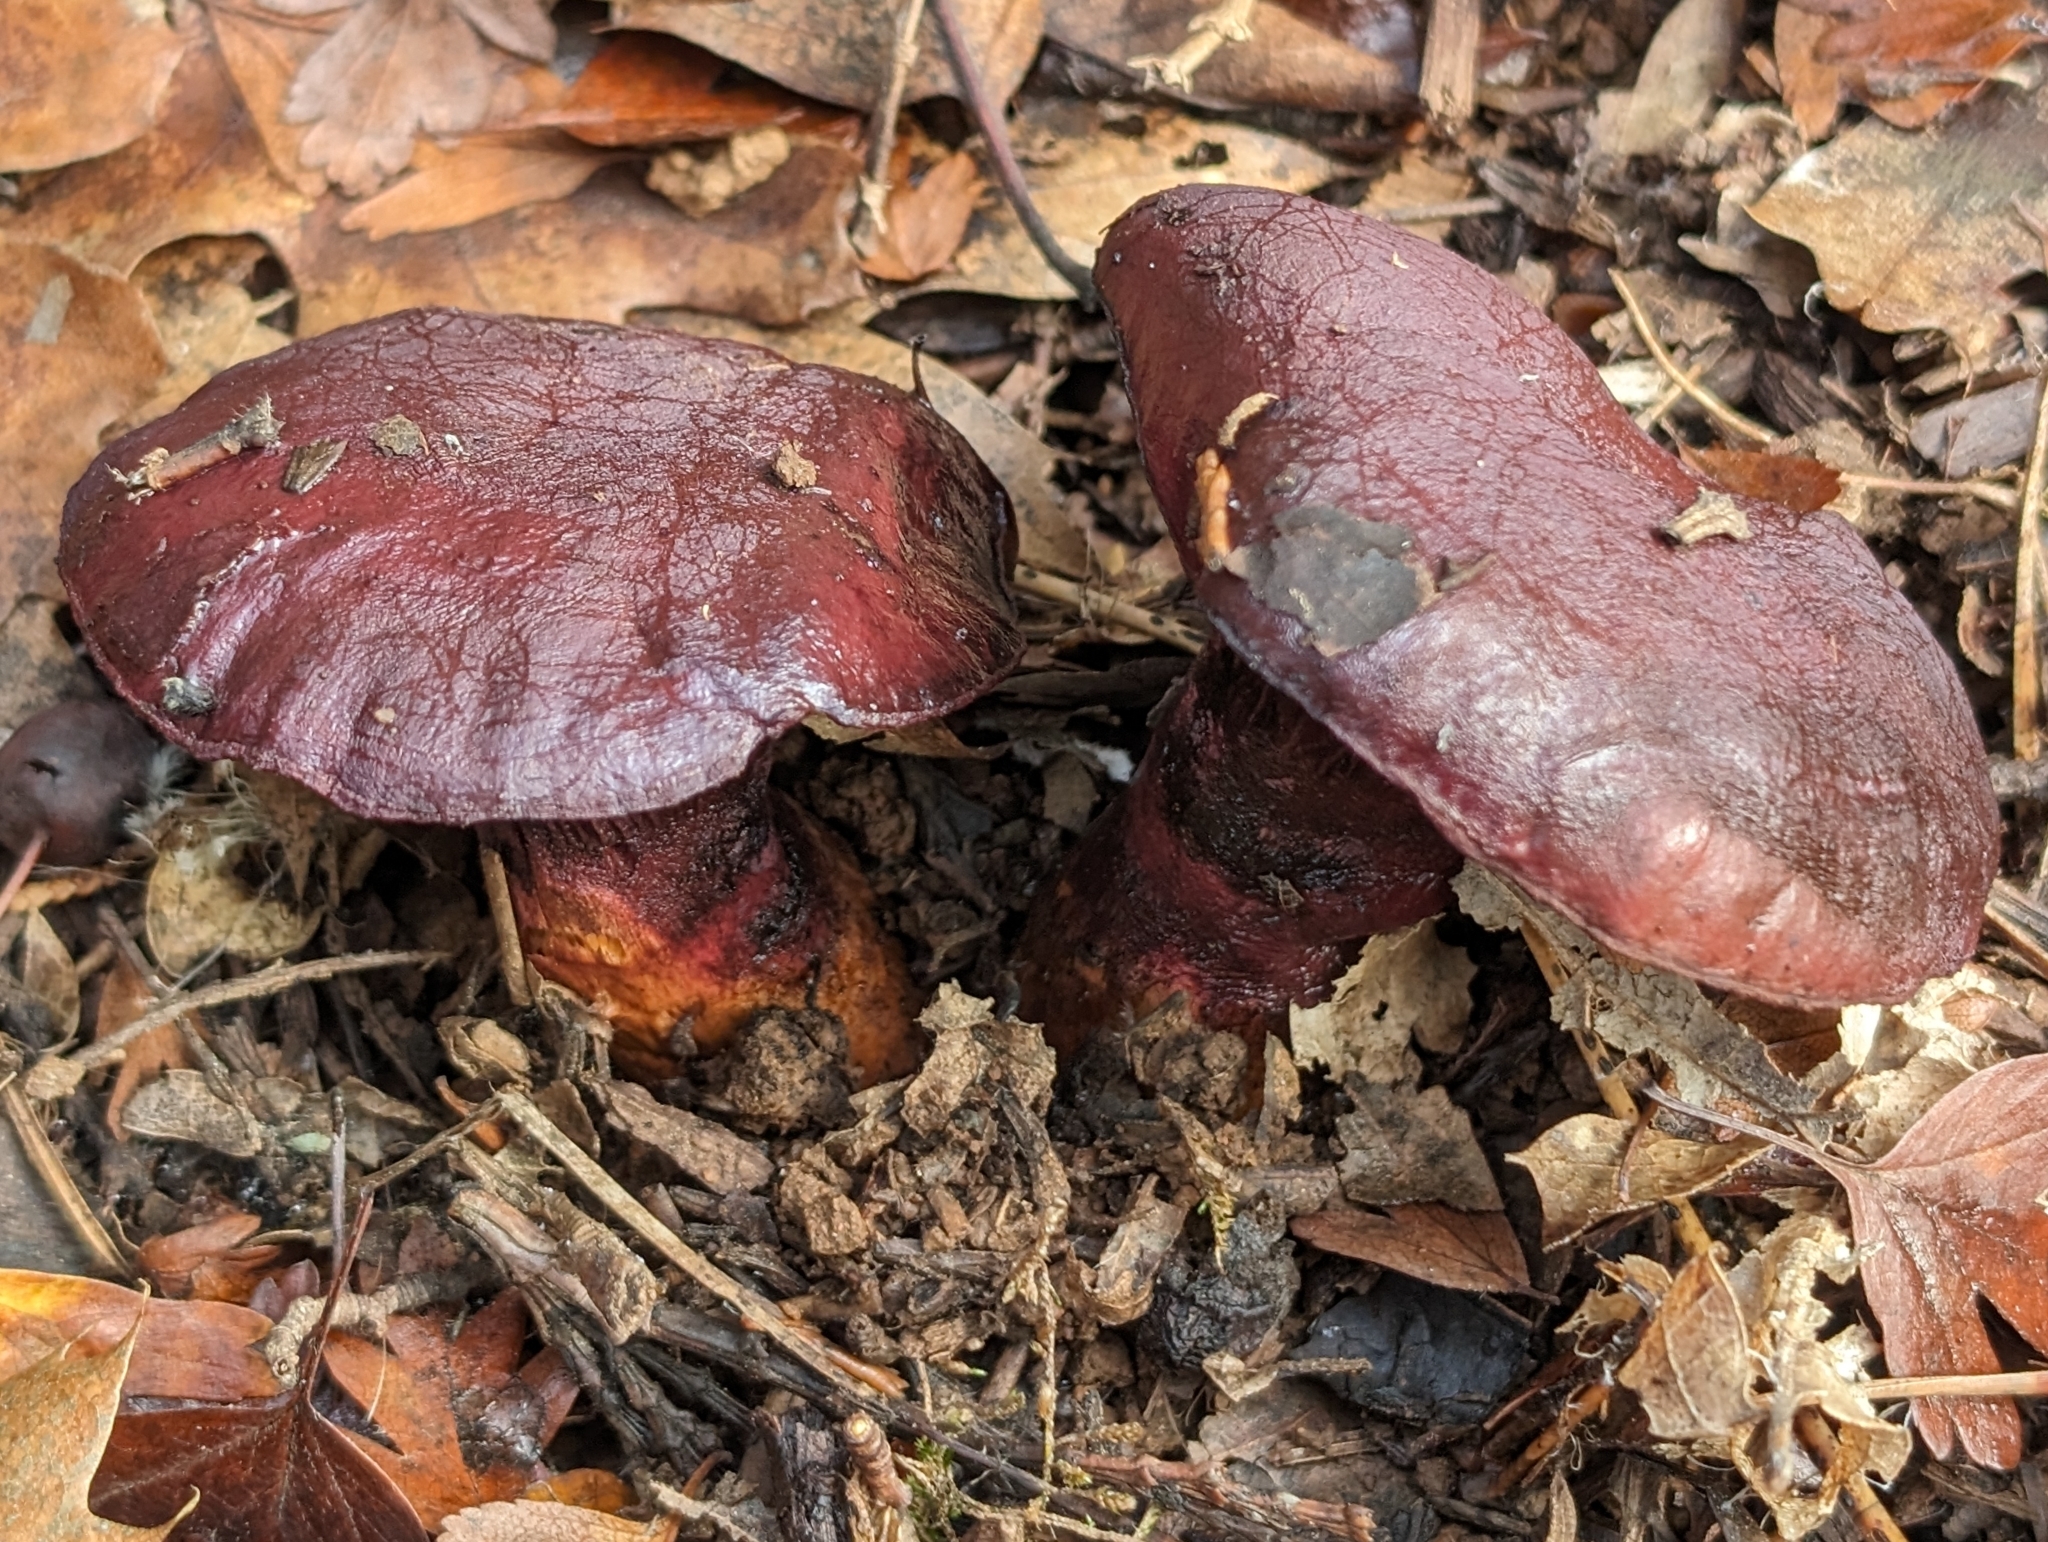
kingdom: Fungi
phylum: Basidiomycota
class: Agaricomycetes
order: Boletales
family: Gomphidiaceae
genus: Chroogomphus
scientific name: Chroogomphus vinicolor
